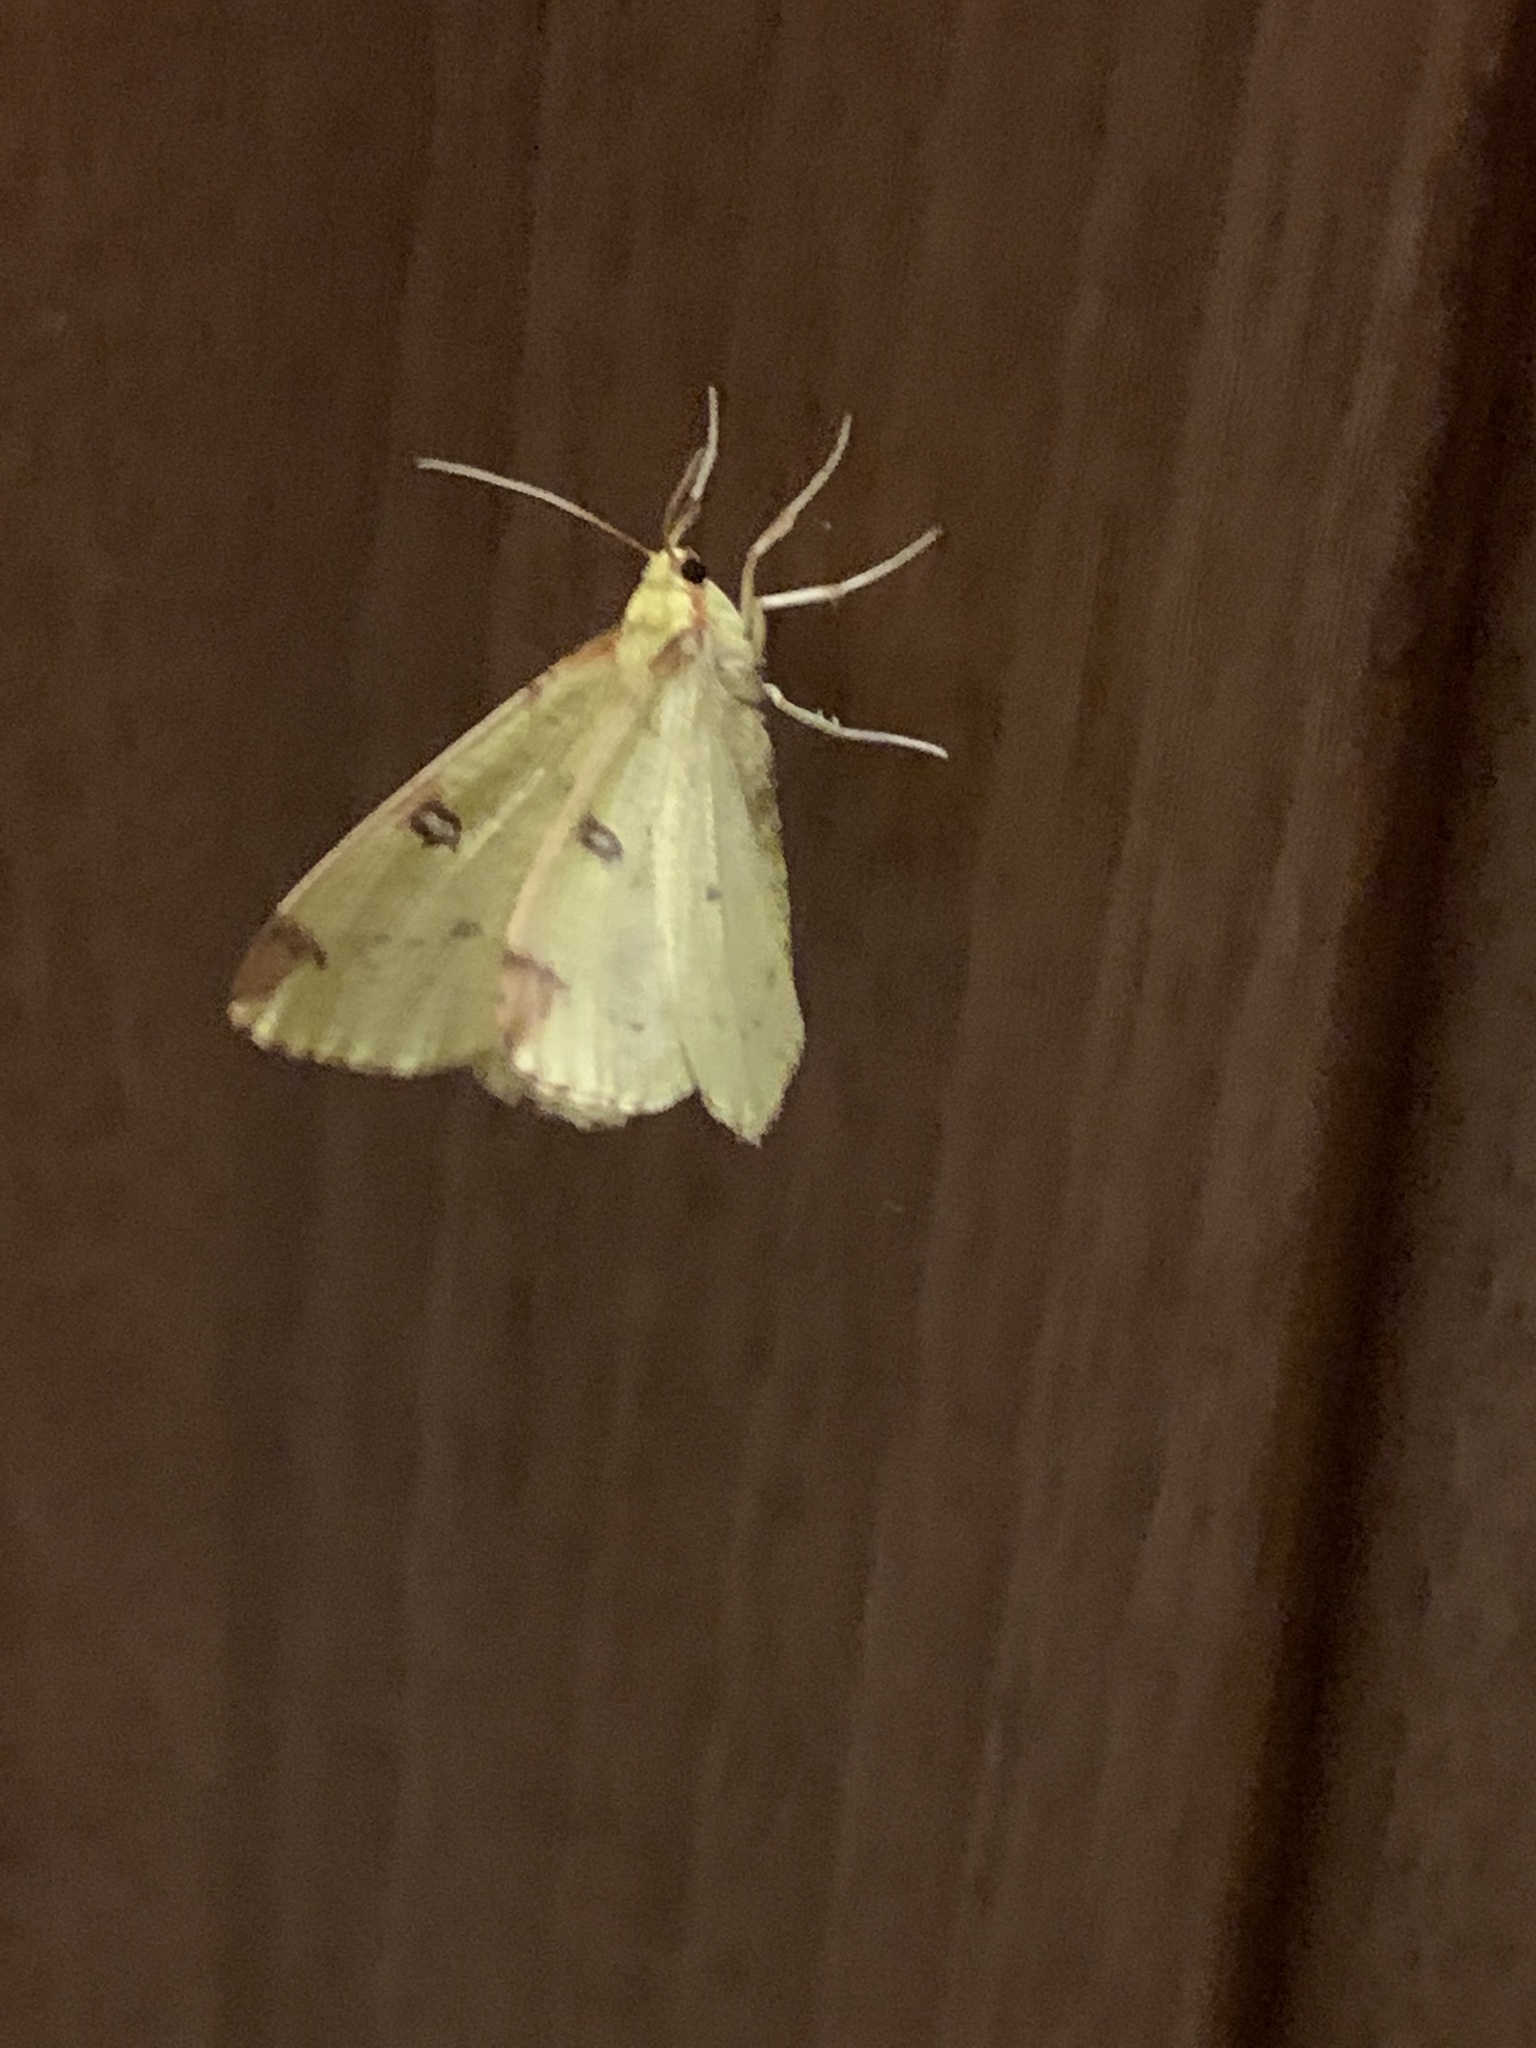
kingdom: Animalia
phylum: Arthropoda
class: Insecta
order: Lepidoptera
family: Geometridae
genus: Opisthograptis
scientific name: Opisthograptis luteolata
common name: Brimstone moth
